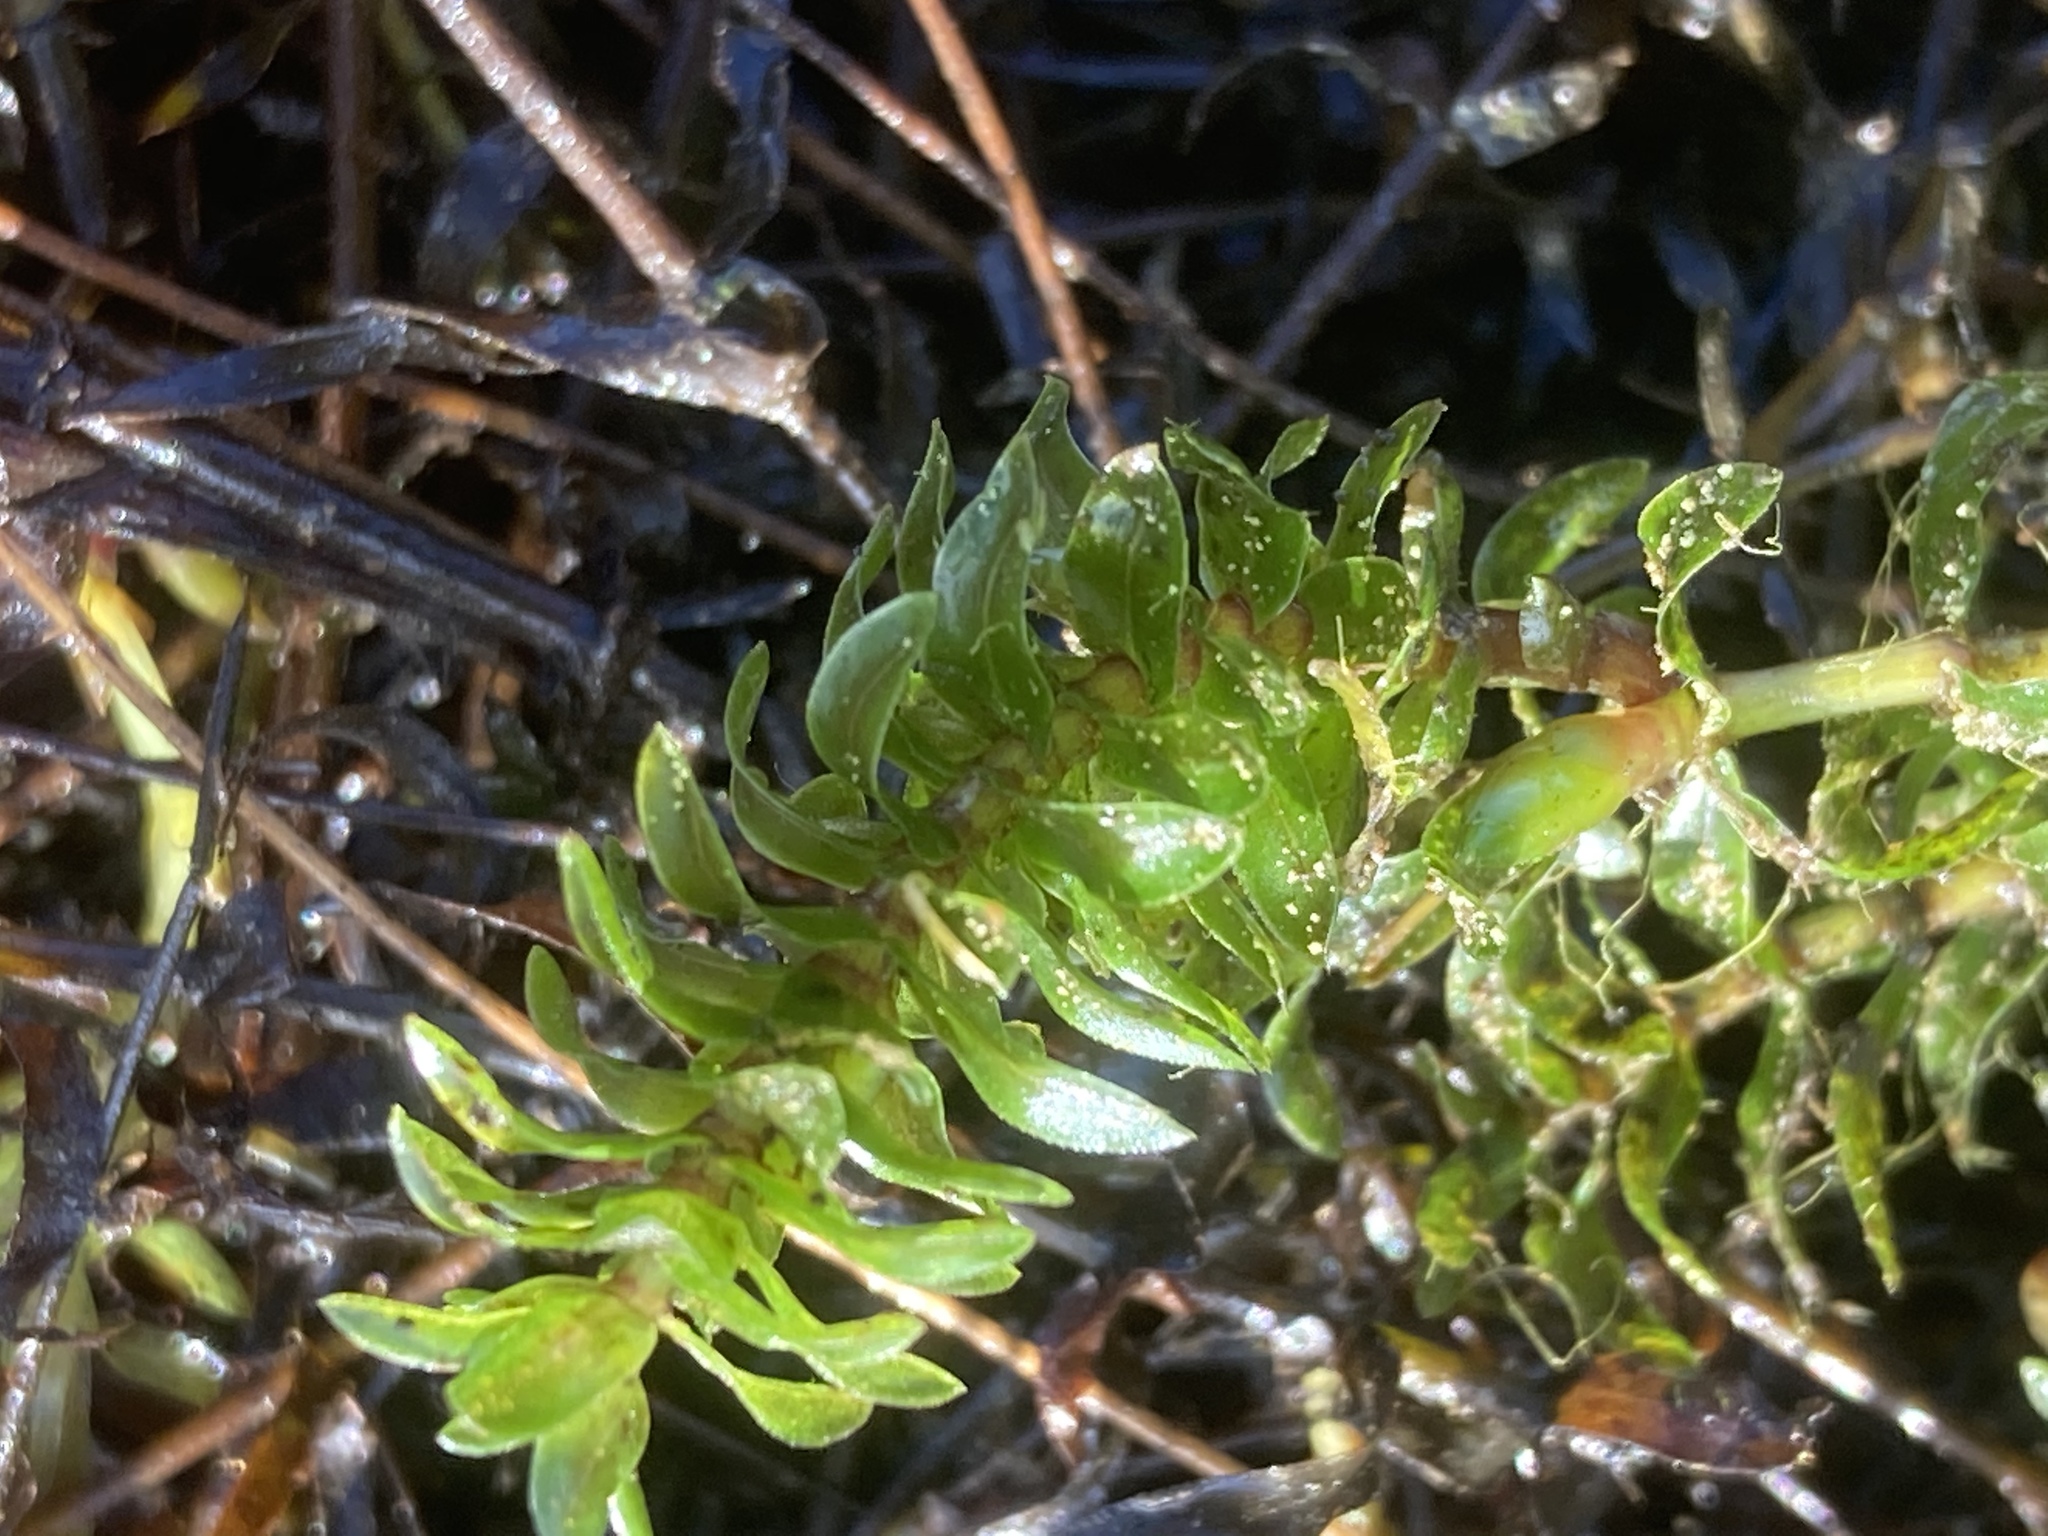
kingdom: Plantae
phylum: Tracheophyta
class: Liliopsida
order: Alismatales
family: Hydrocharitaceae
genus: Elodea
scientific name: Elodea canadensis
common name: Canadian waterweed
